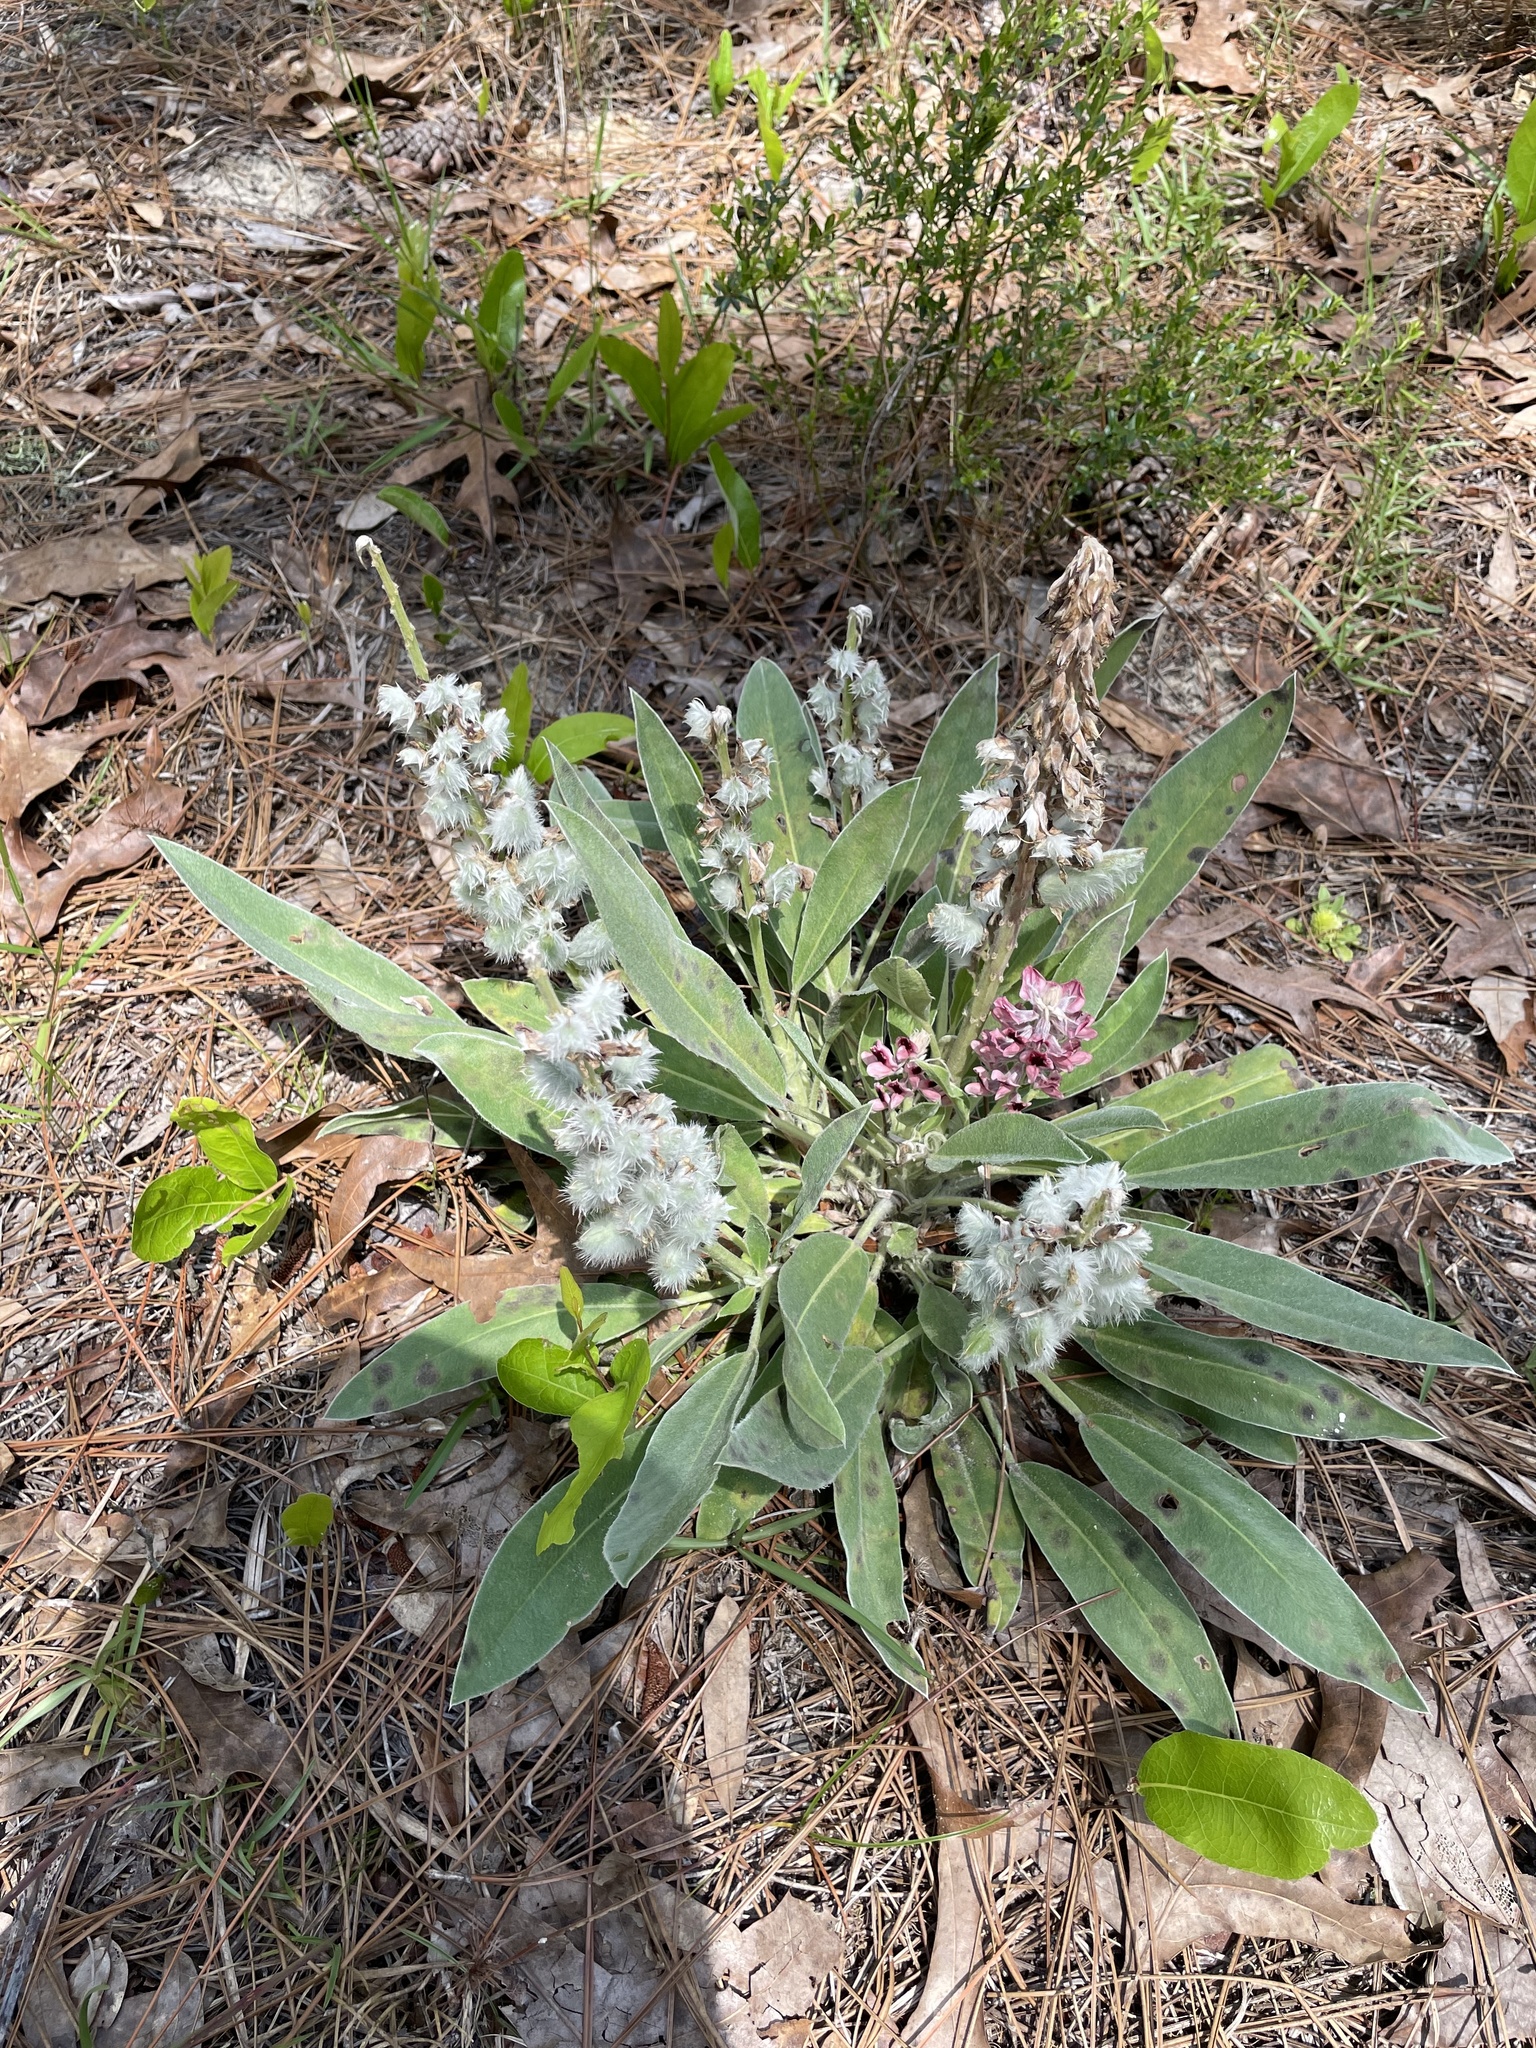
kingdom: Plantae
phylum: Tracheophyta
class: Magnoliopsida
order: Fabales
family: Fabaceae
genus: Lupinus
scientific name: Lupinus villosus
